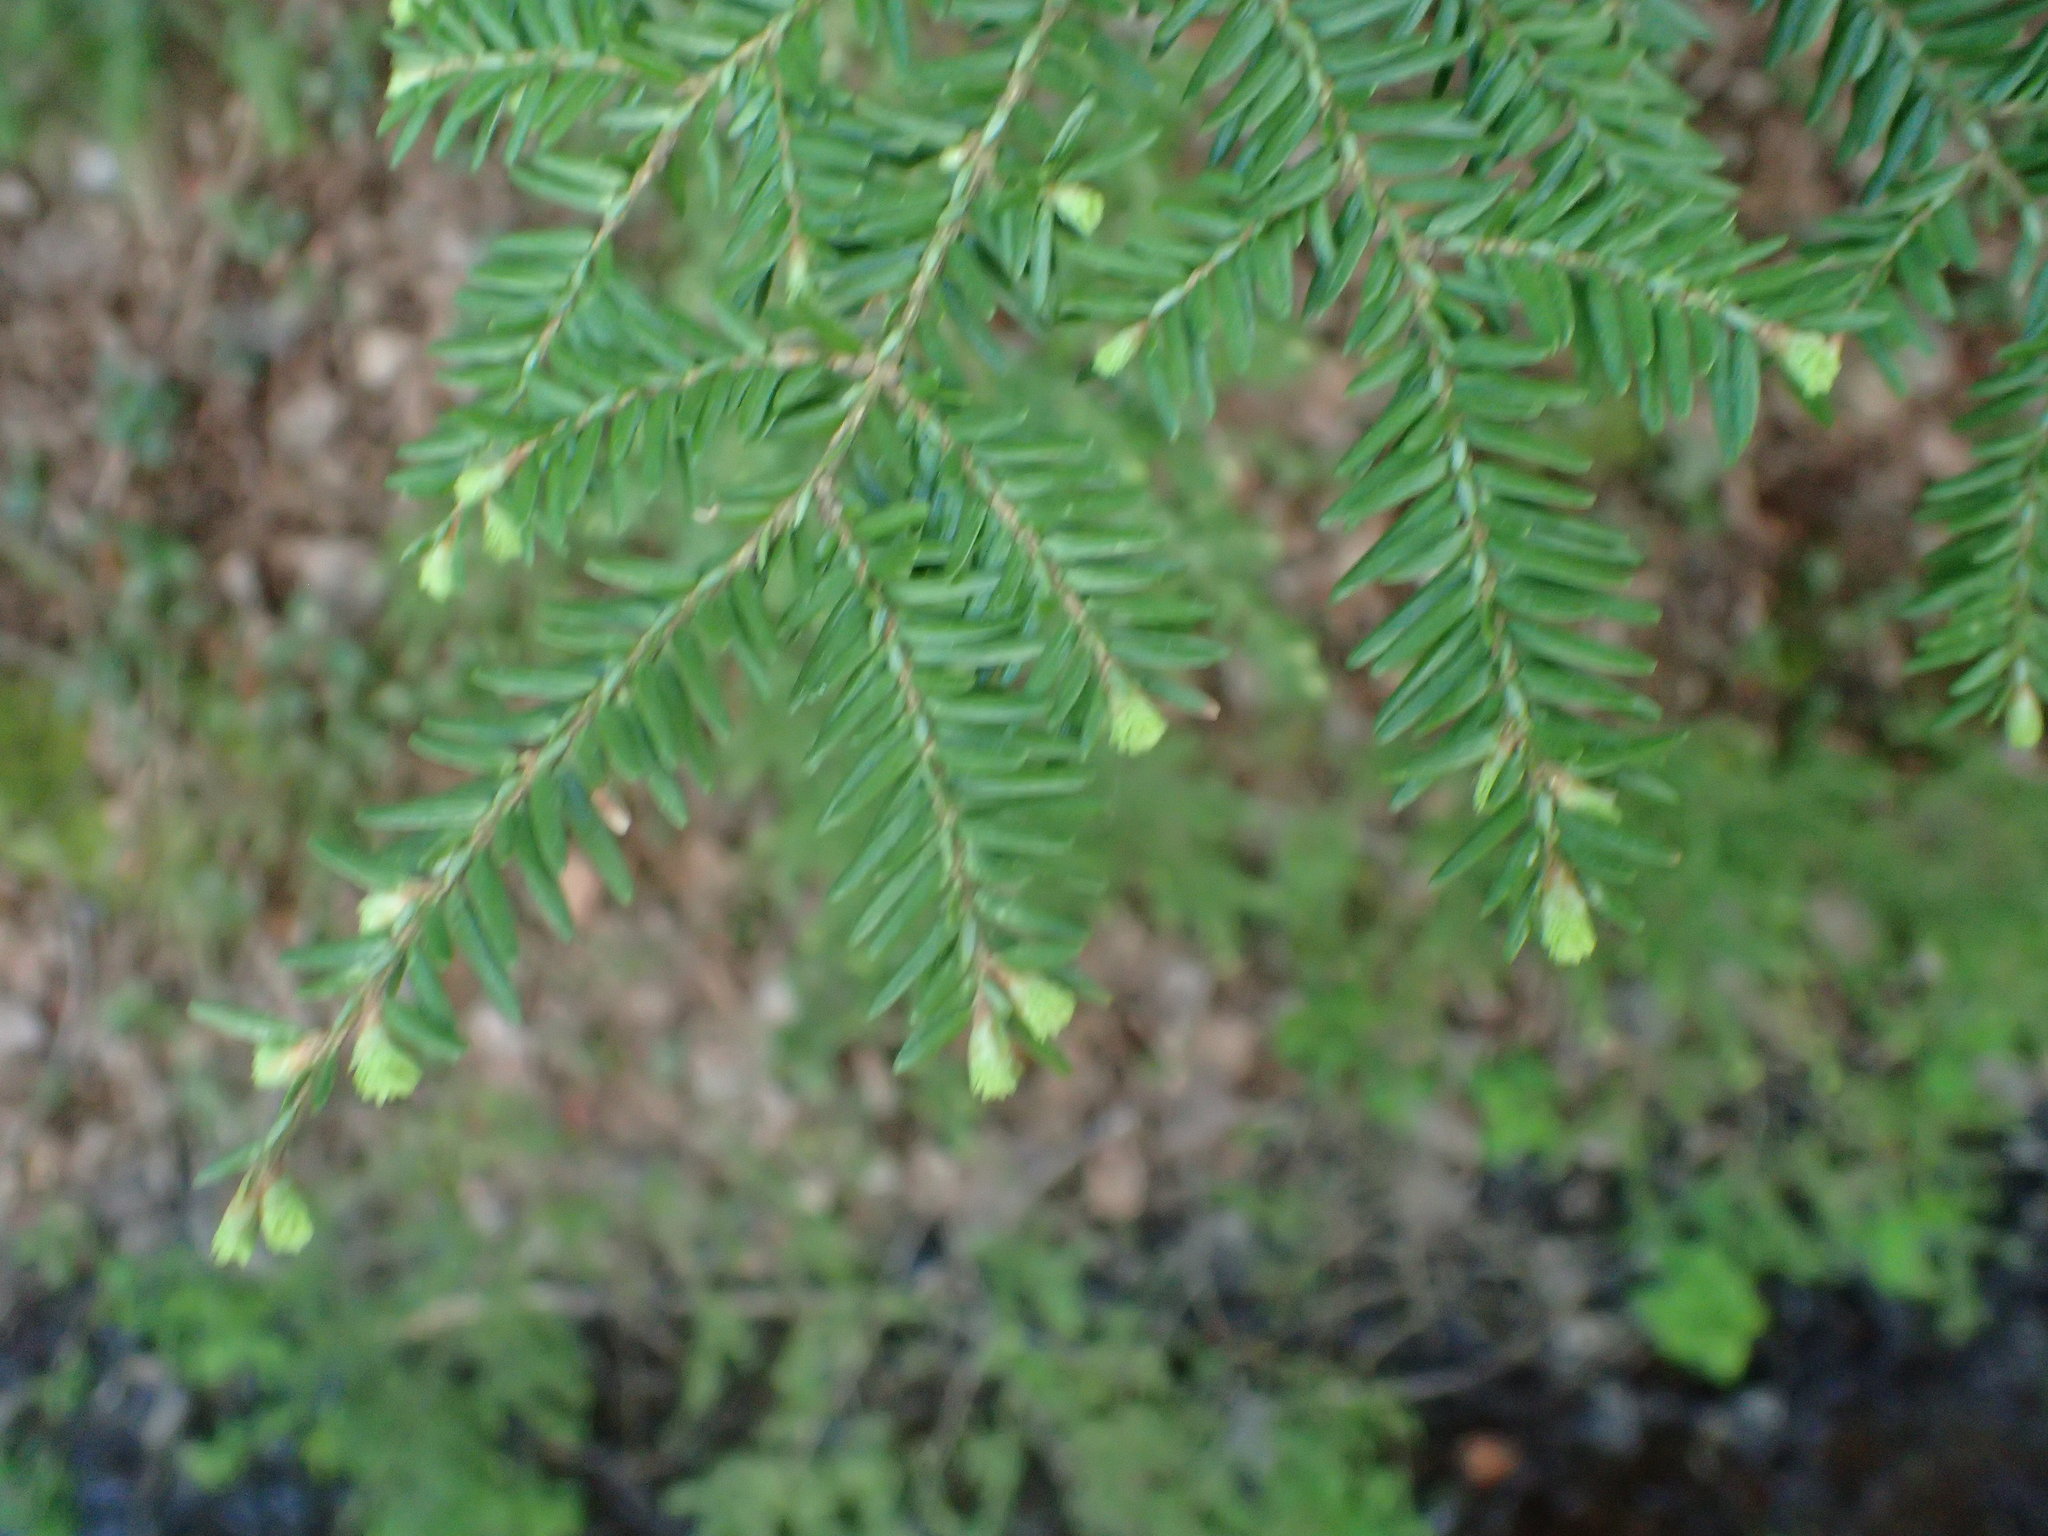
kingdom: Plantae
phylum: Tracheophyta
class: Pinopsida
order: Pinales
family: Pinaceae
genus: Tsuga
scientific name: Tsuga canadensis
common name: Eastern hemlock
